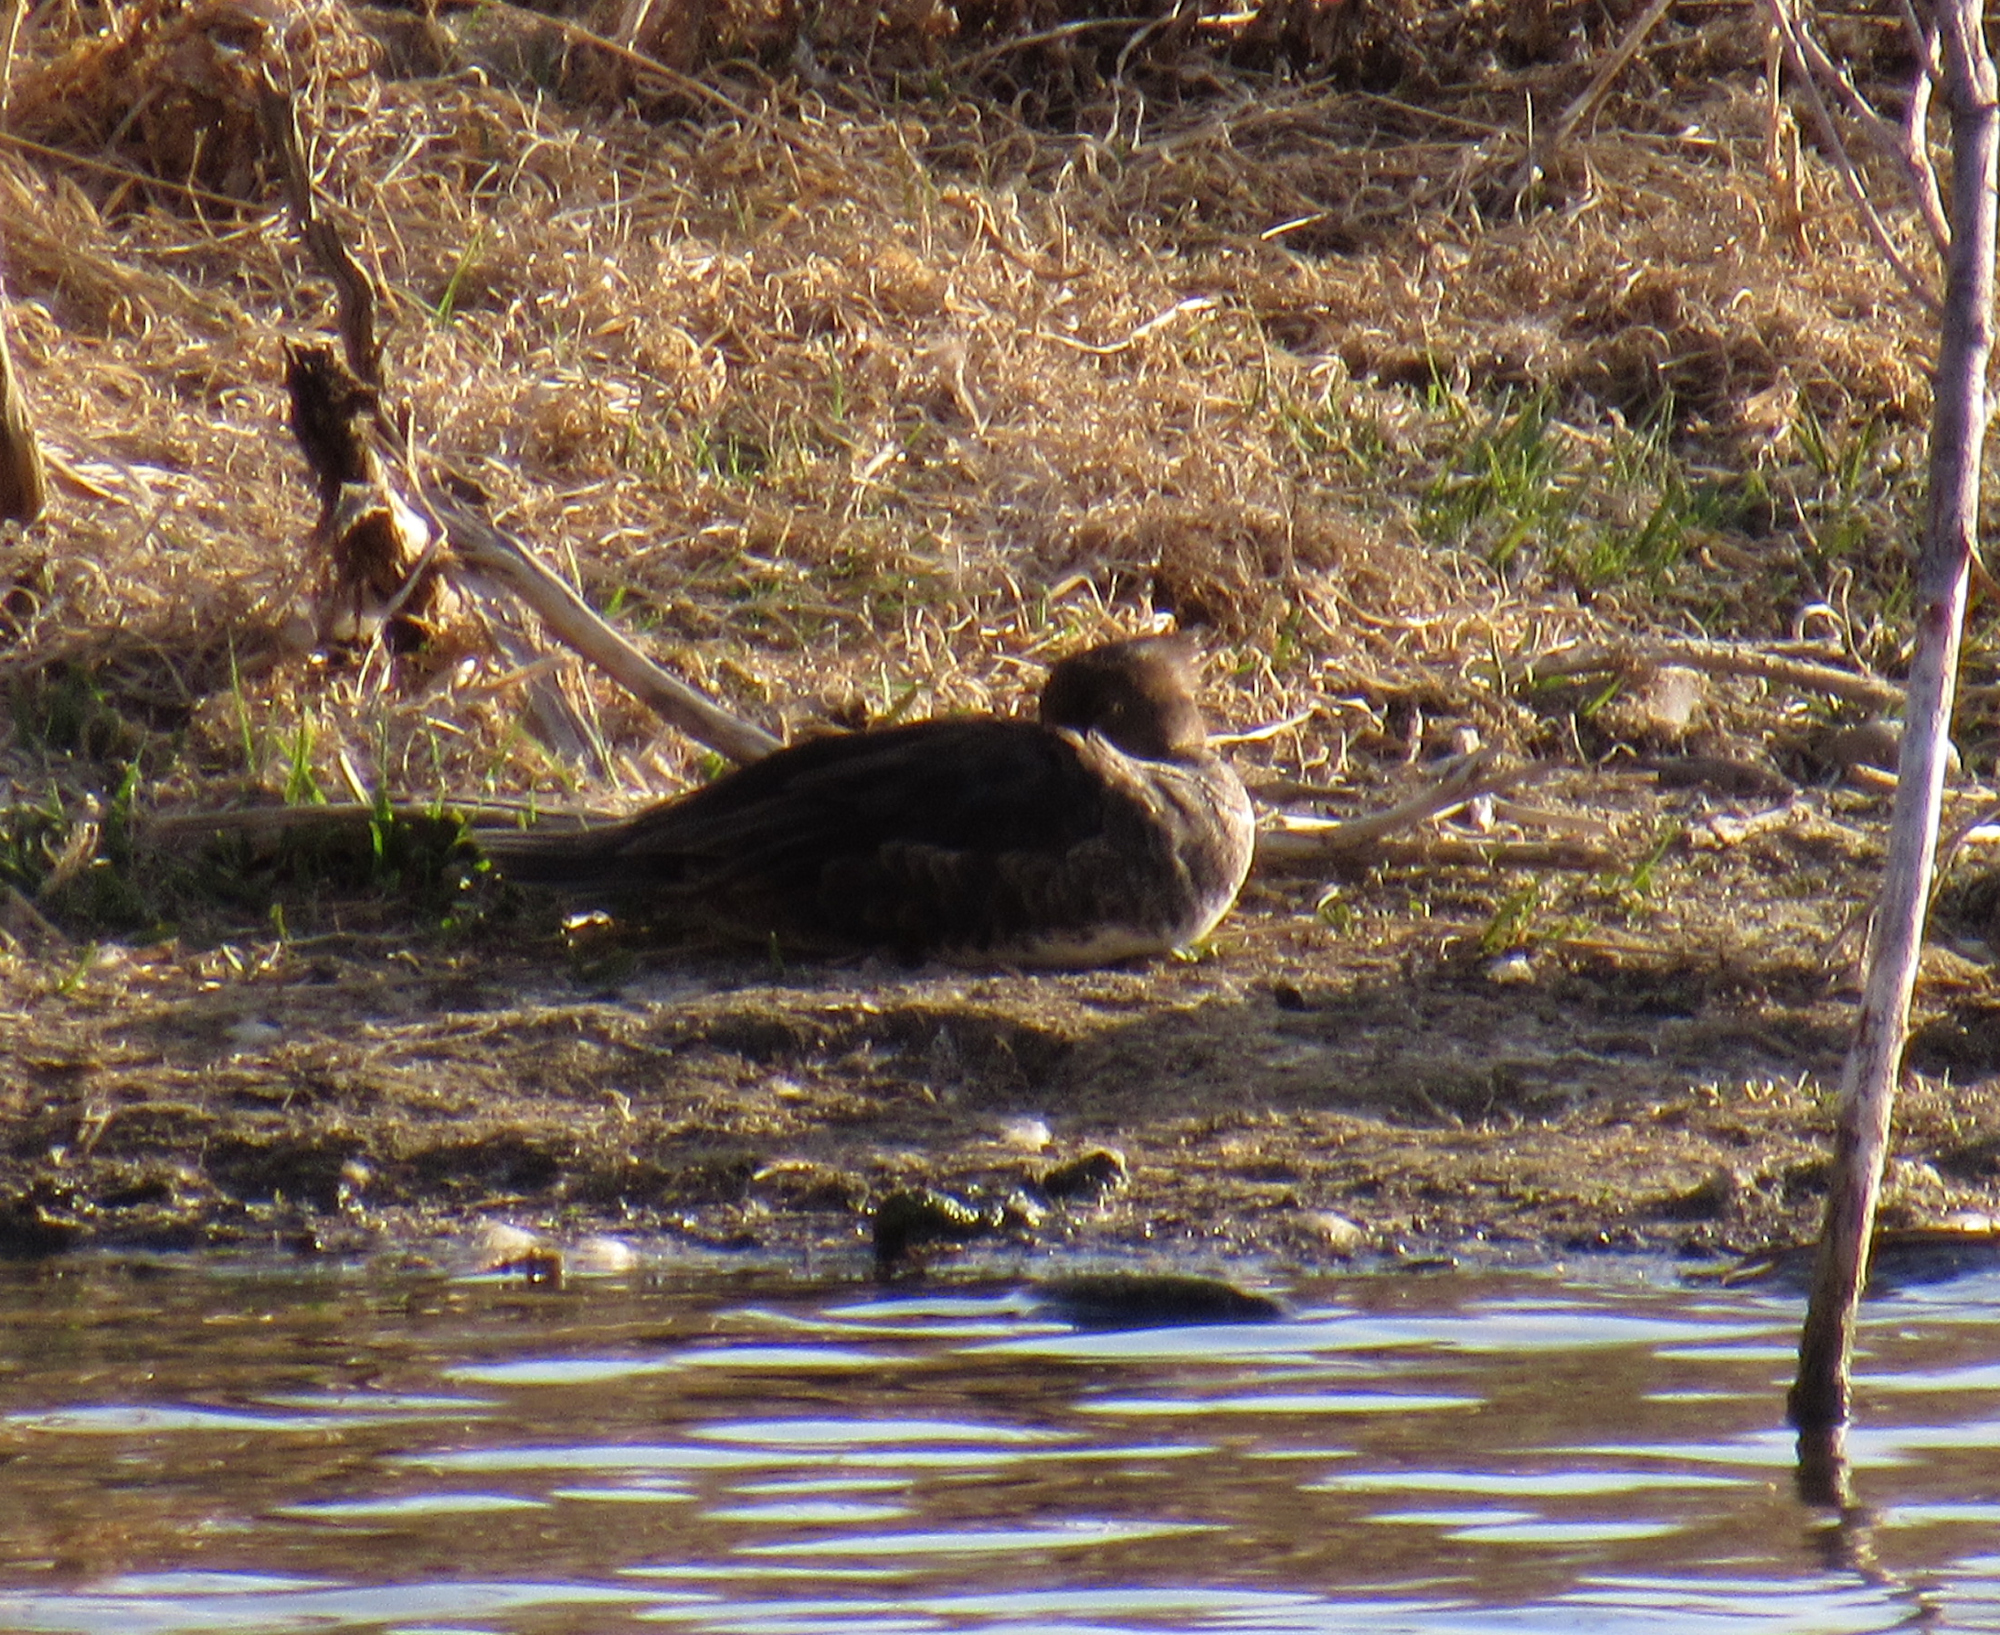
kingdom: Animalia
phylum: Chordata
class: Aves
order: Anseriformes
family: Anatidae
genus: Lophodytes
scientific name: Lophodytes cucullatus
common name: Hooded merganser
